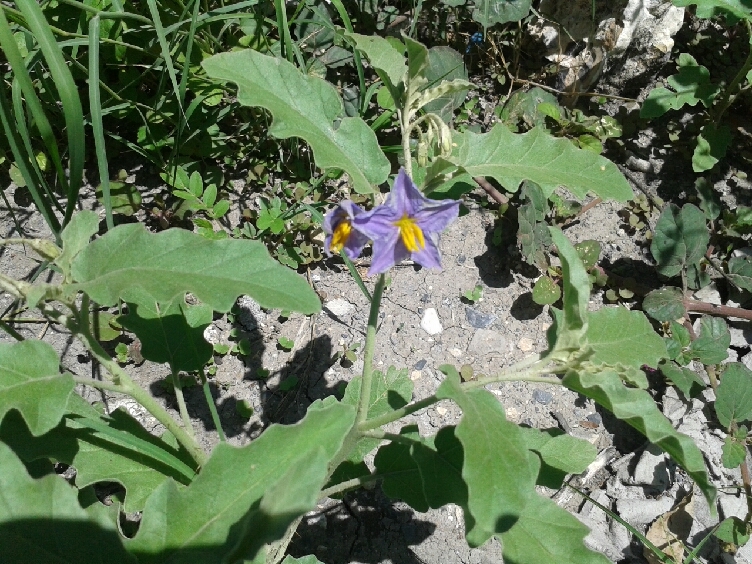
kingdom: Plantae
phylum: Tracheophyta
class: Magnoliopsida
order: Solanales
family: Solanaceae
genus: Solanum
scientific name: Solanum elaeagnifolium
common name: Silverleaf nightshade
